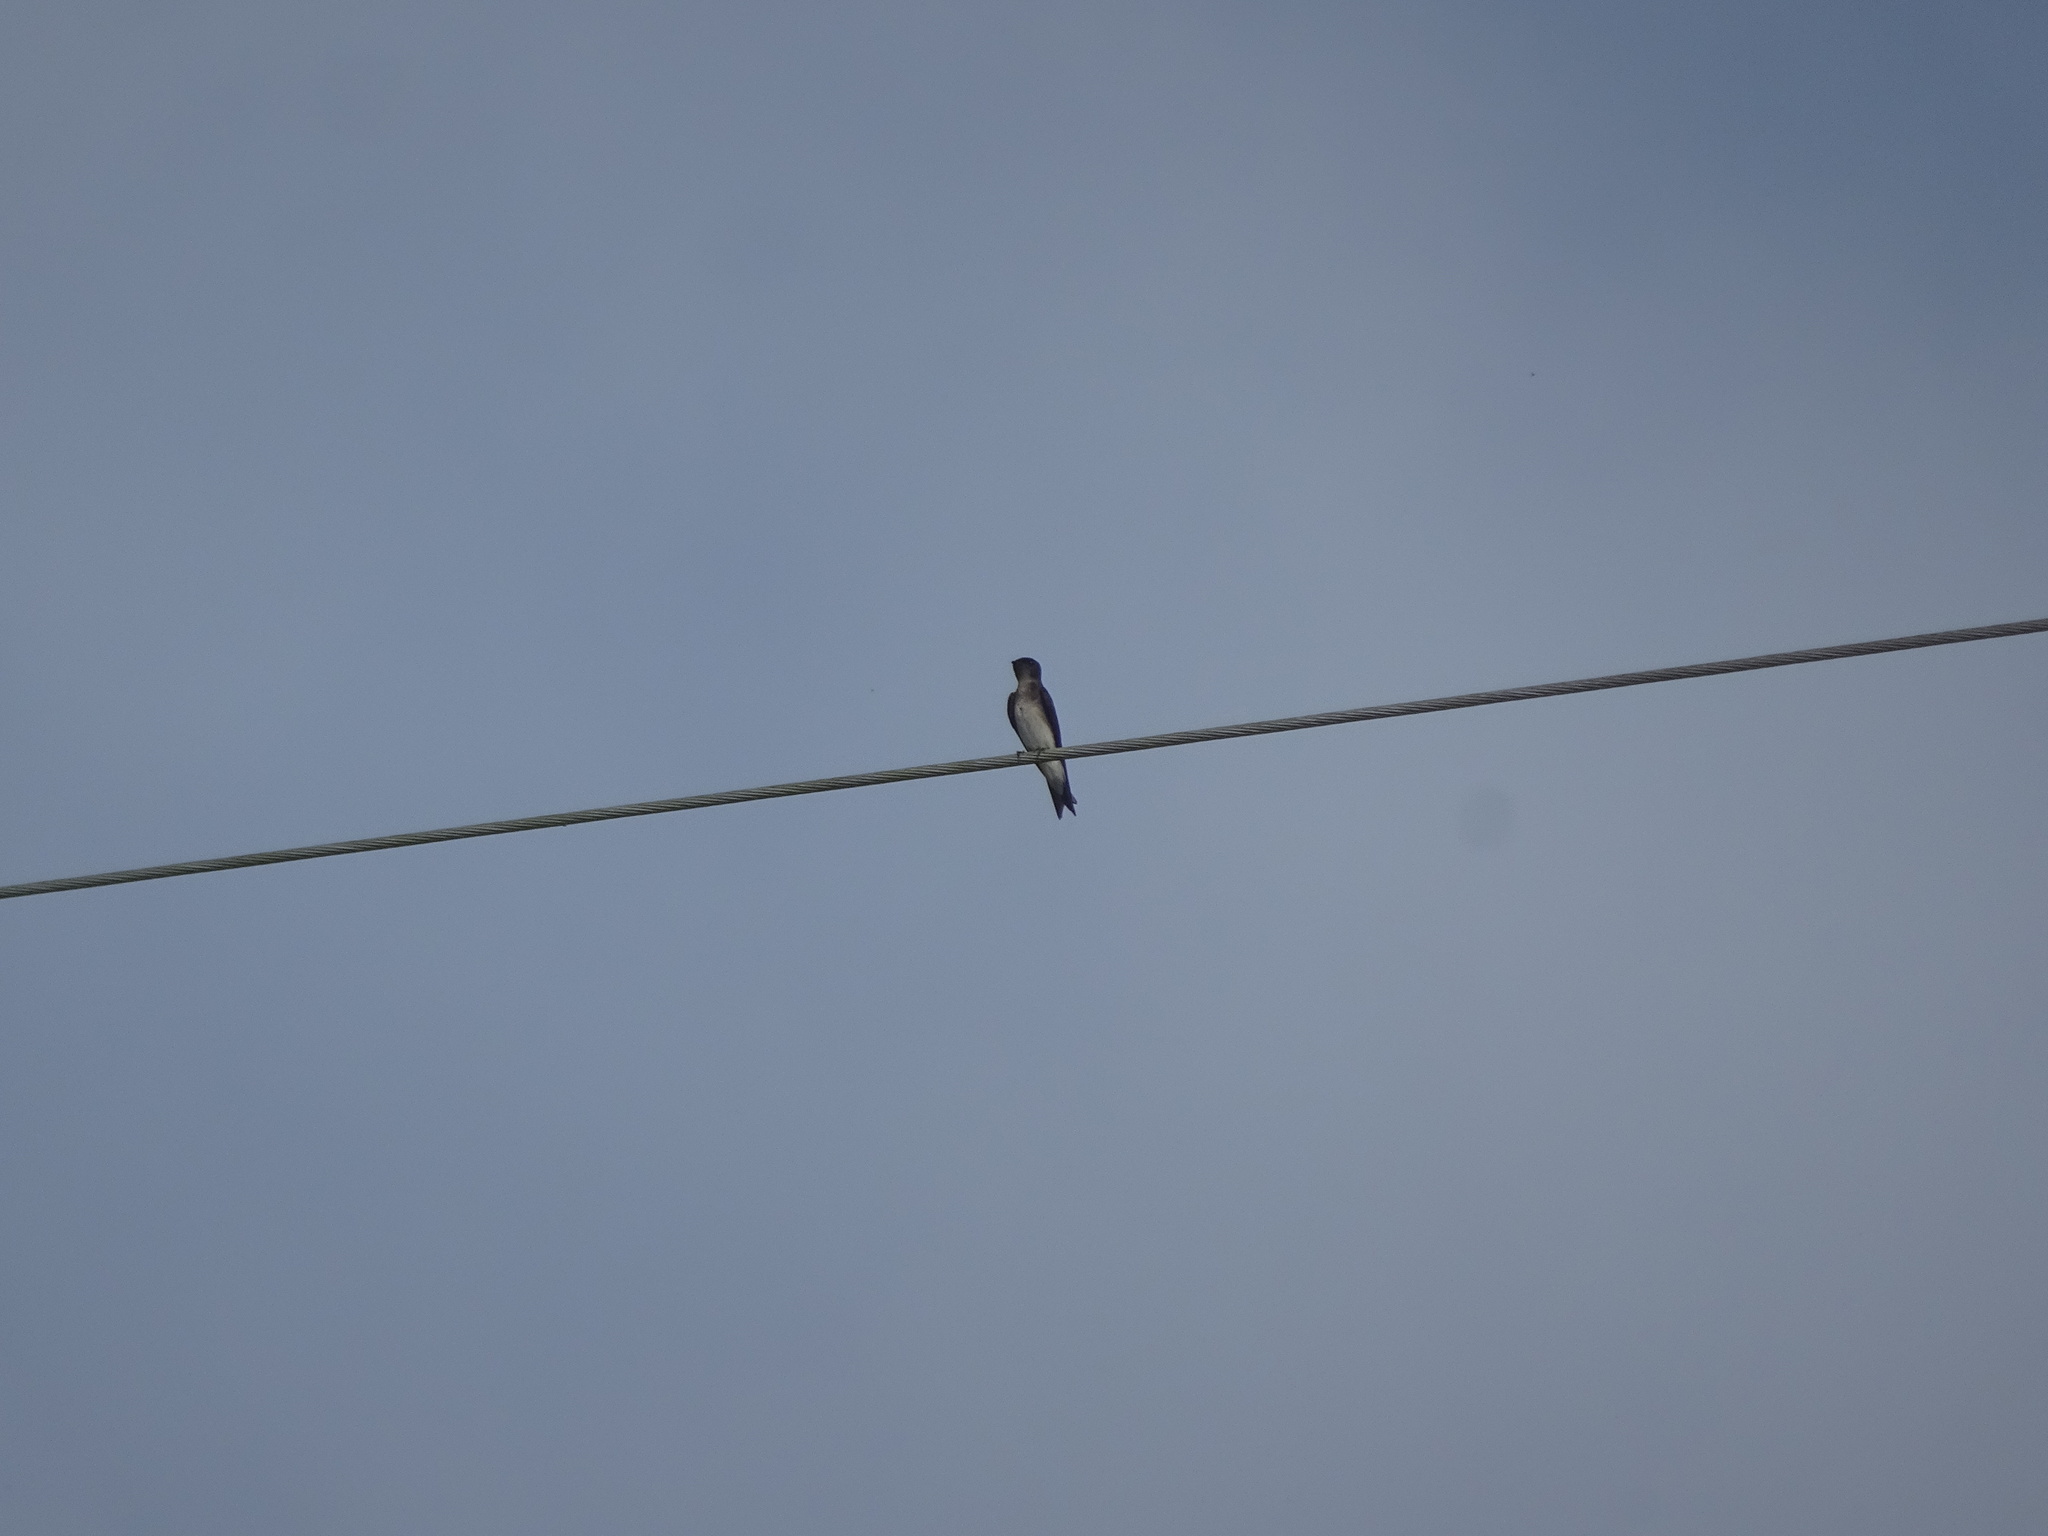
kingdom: Animalia
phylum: Chordata
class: Aves
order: Passeriformes
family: Hirundinidae
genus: Progne
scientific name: Progne chalybea
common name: Grey-breasted martin
